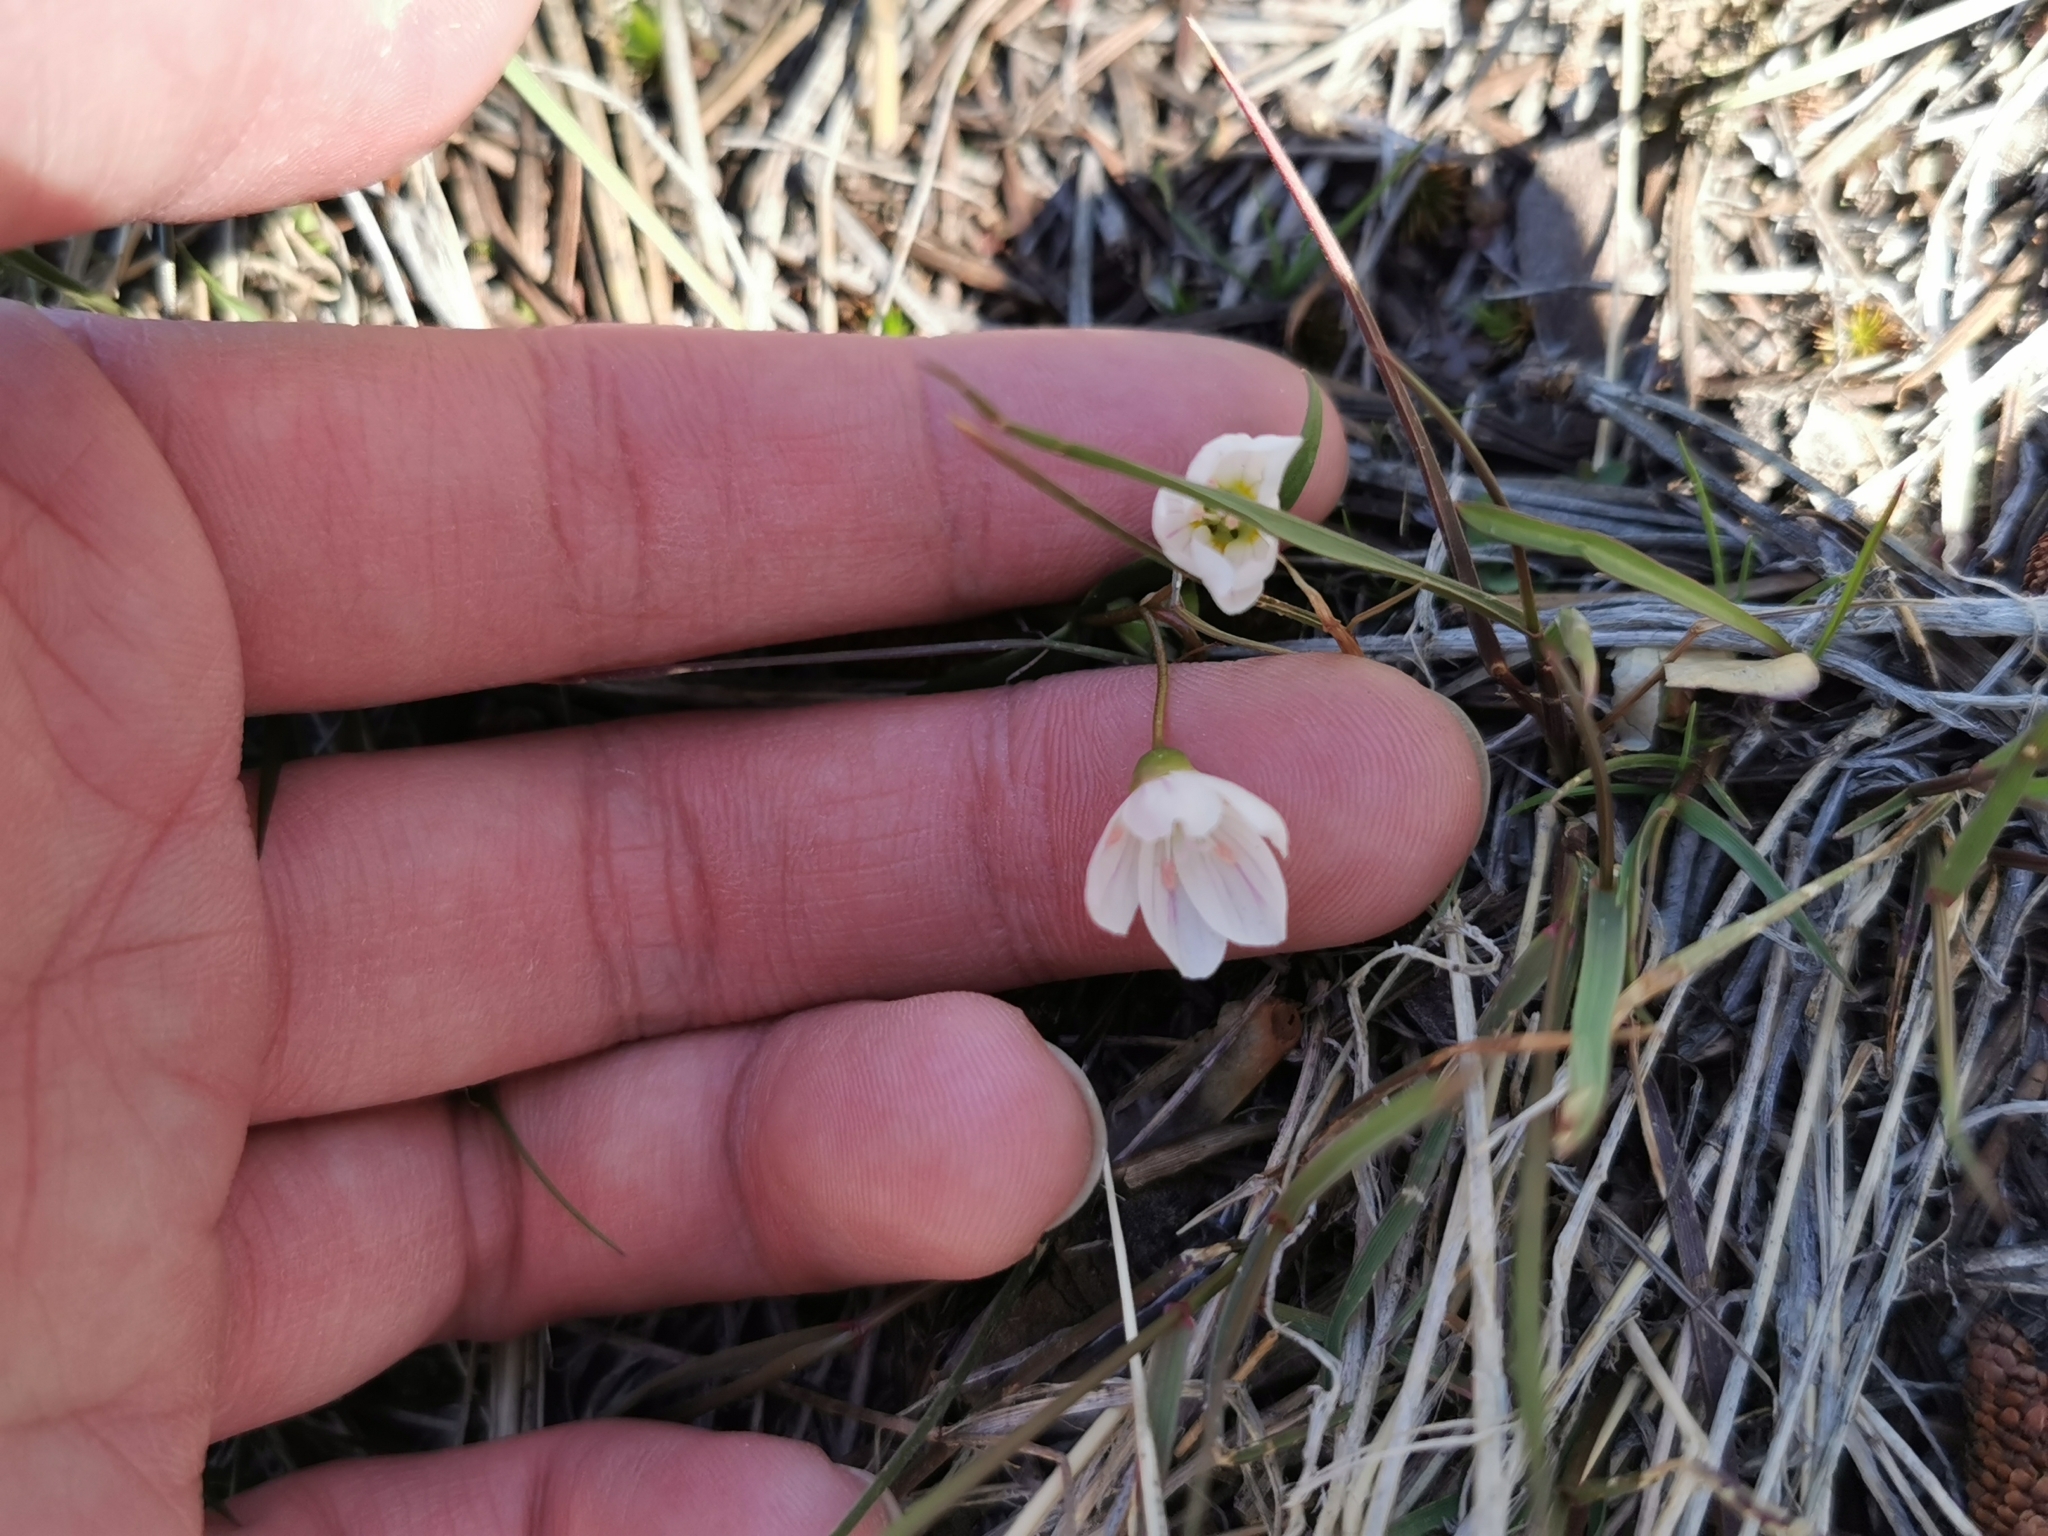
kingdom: Plantae
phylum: Tracheophyta
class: Magnoliopsida
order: Caryophyllales
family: Montiaceae
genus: Claytonia
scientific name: Claytonia lanceolata
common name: Western spring-beauty
